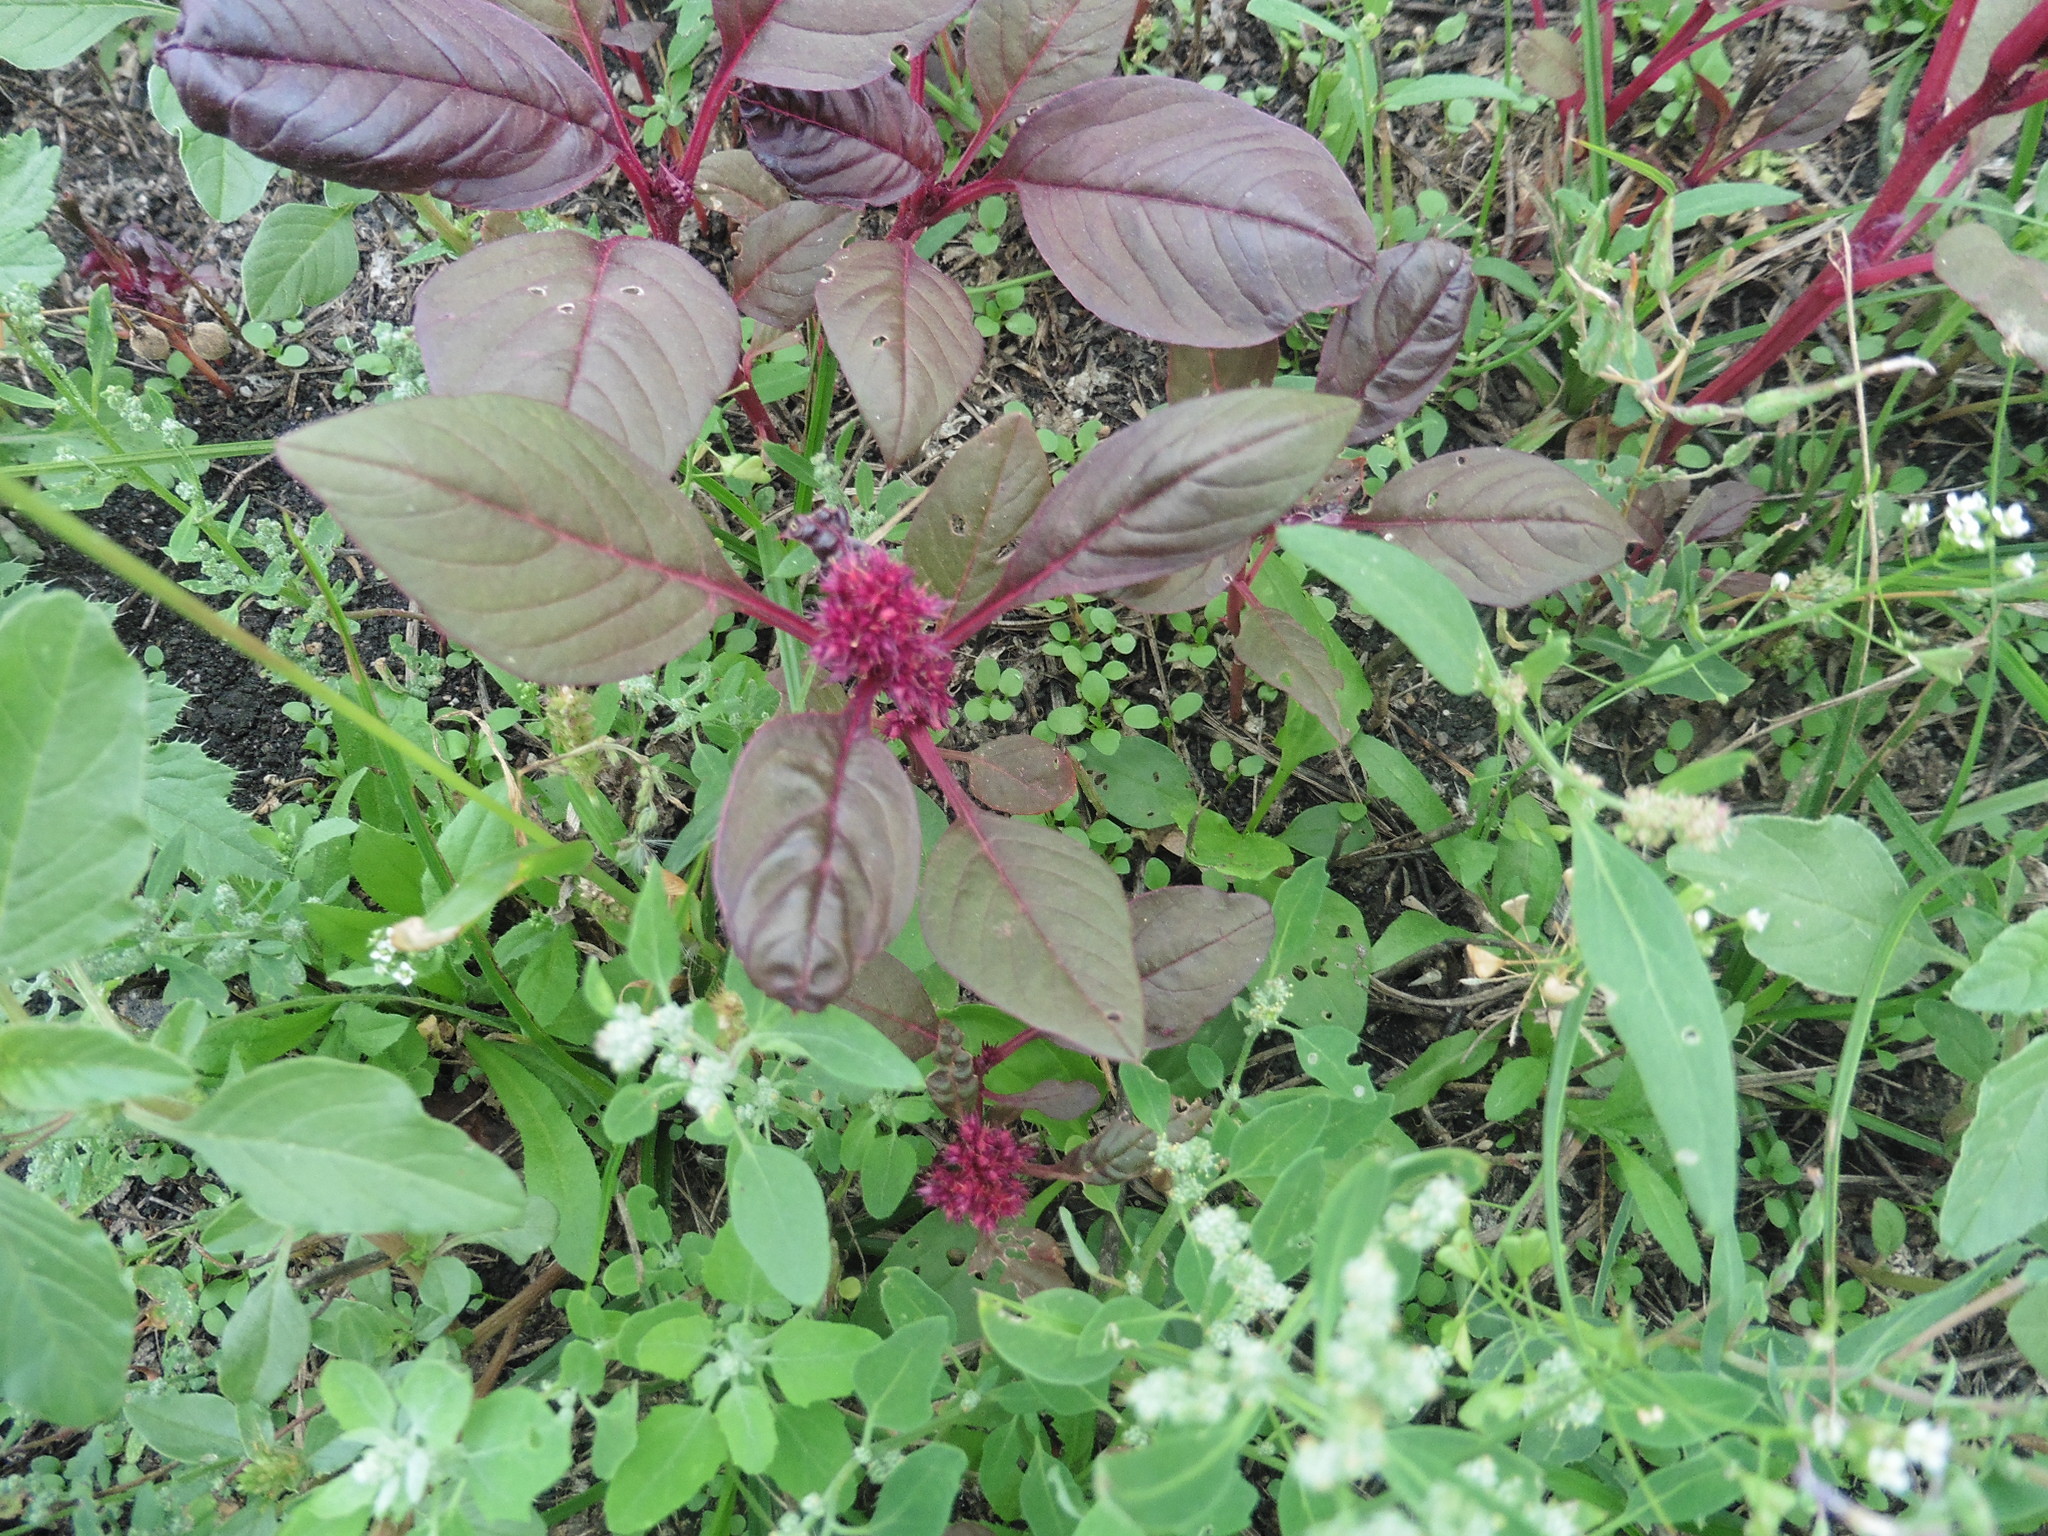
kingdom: Plantae
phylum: Tracheophyta
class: Magnoliopsida
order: Caryophyllales
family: Amaranthaceae
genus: Amaranthus
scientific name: Amaranthus cruentus
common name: Purple amaranth
